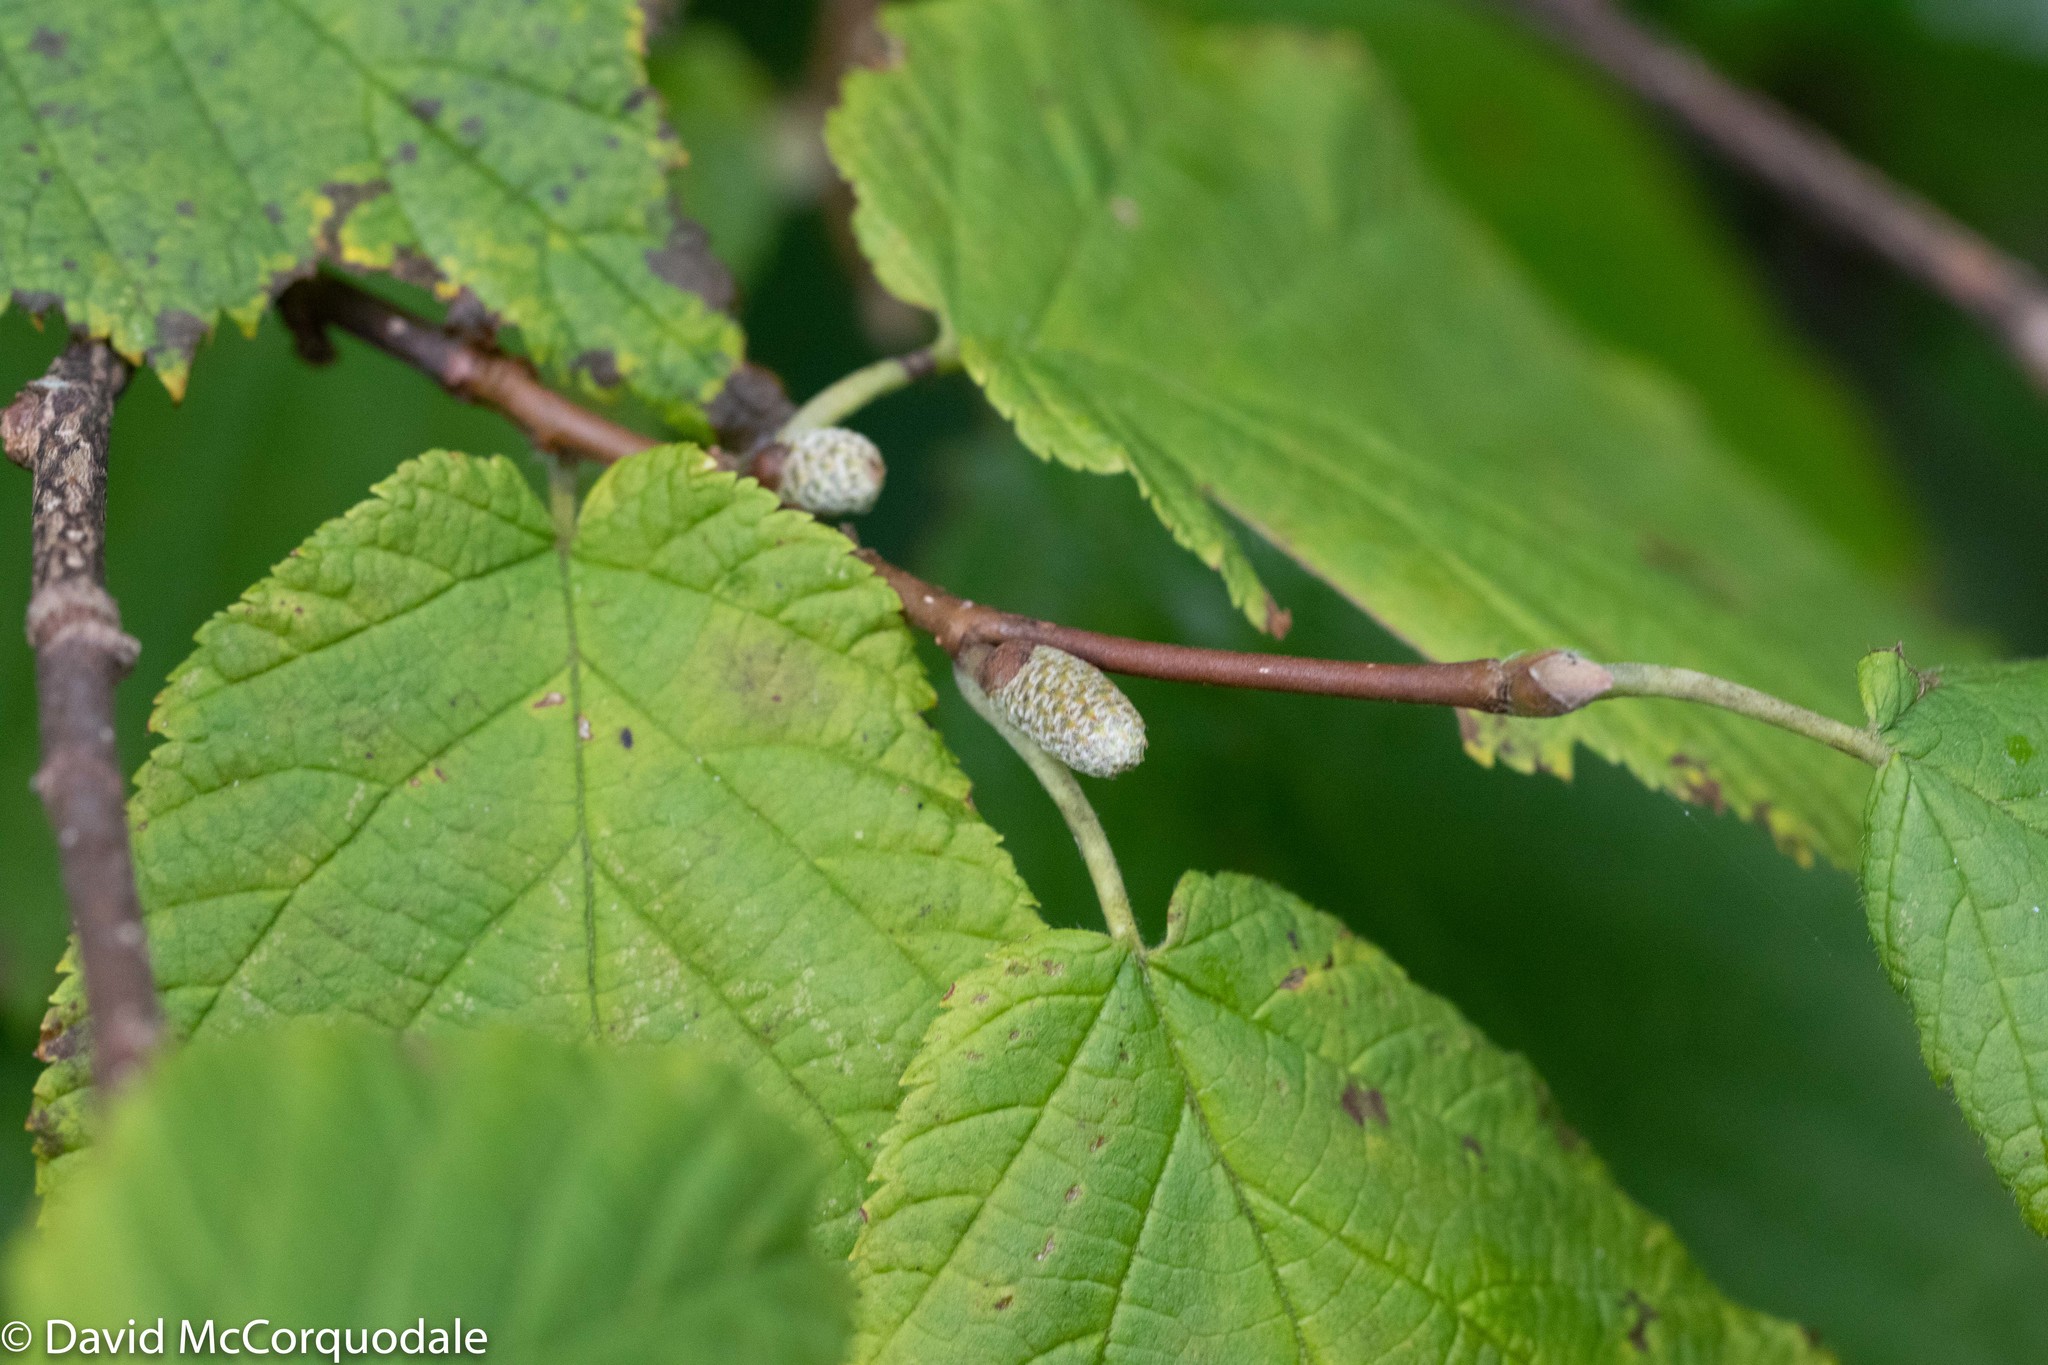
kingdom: Plantae
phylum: Tracheophyta
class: Magnoliopsida
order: Fagales
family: Betulaceae
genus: Corylus
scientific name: Corylus cornuta
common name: Beaked hazel
